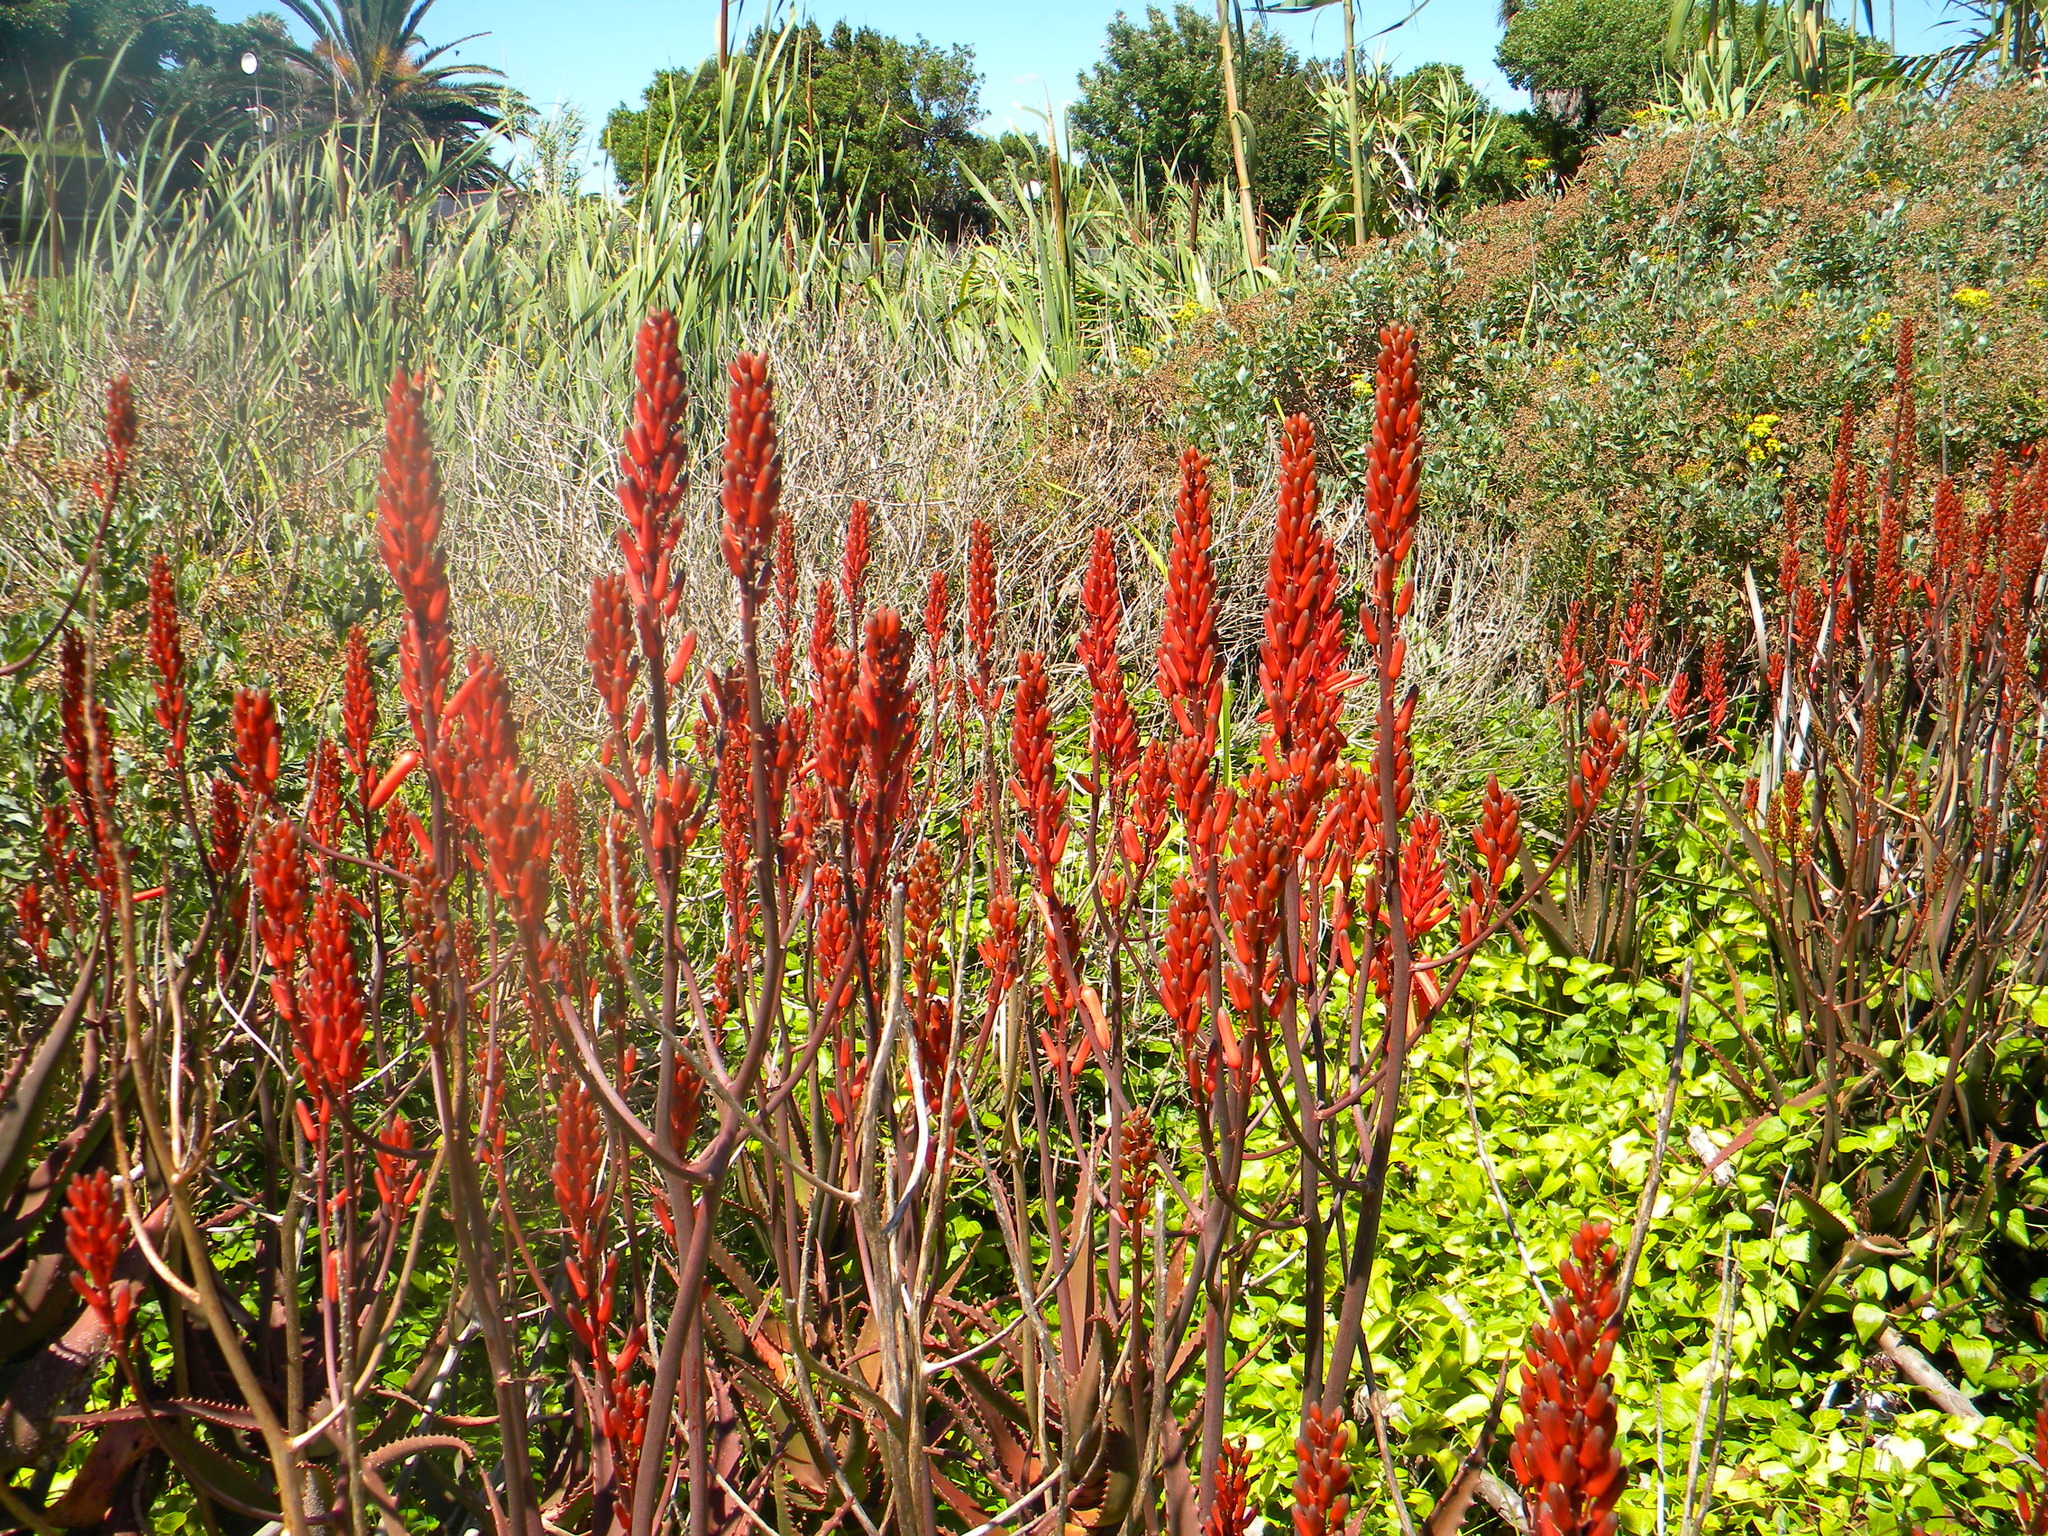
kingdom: Plantae
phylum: Tracheophyta
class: Liliopsida
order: Asparagales
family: Asphodelaceae
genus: Aloe
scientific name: Aloe cameronii
